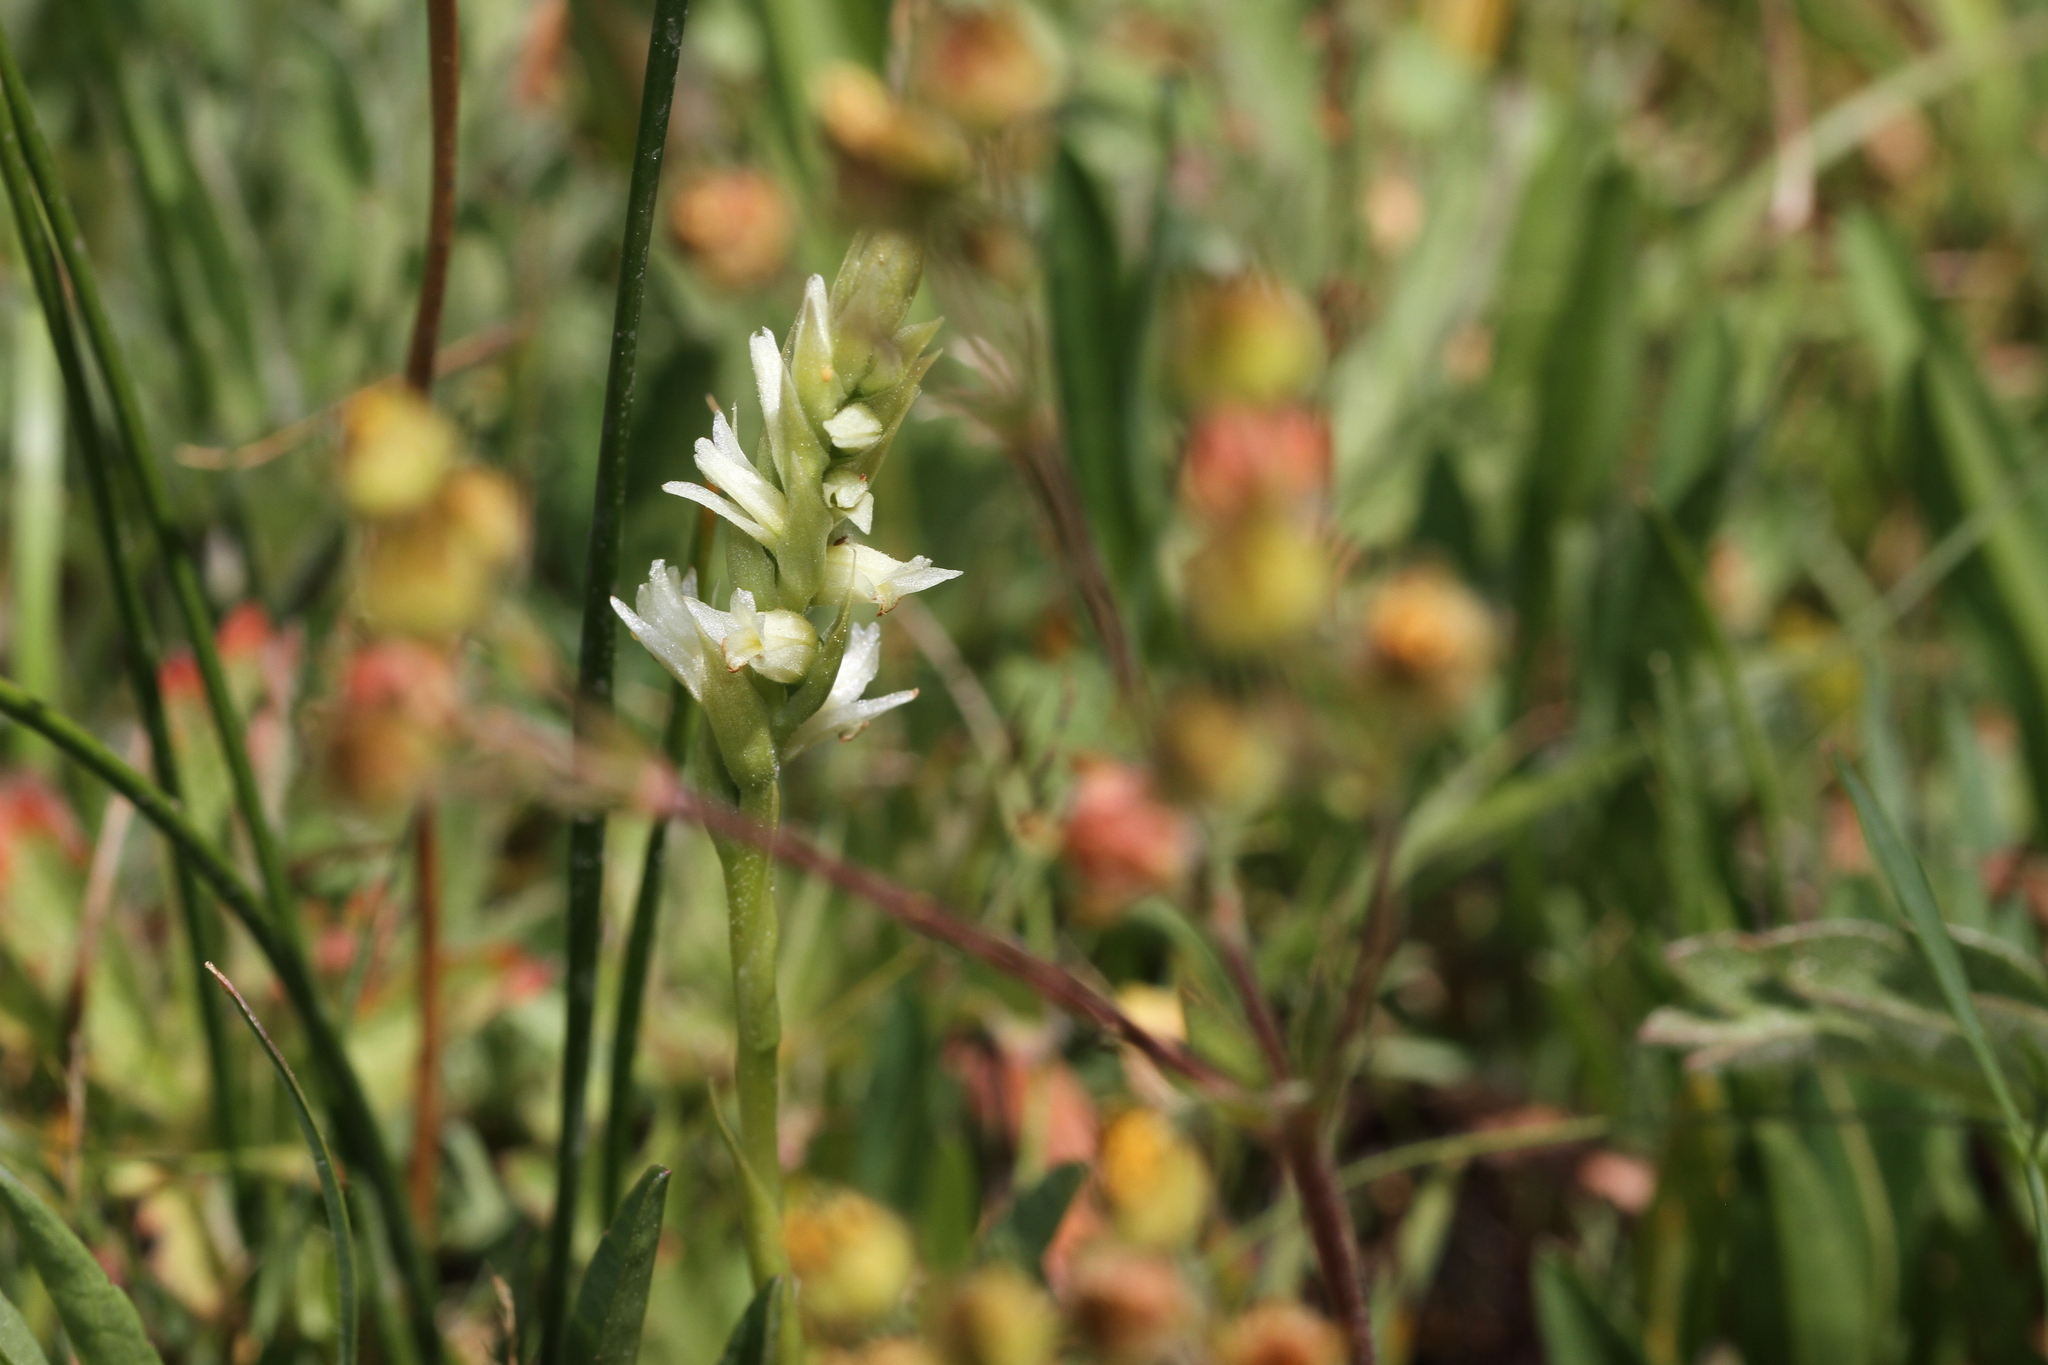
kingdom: Plantae
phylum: Tracheophyta
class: Liliopsida
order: Asparagales
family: Orchidaceae
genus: Spiranthes
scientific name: Spiranthes stellata
